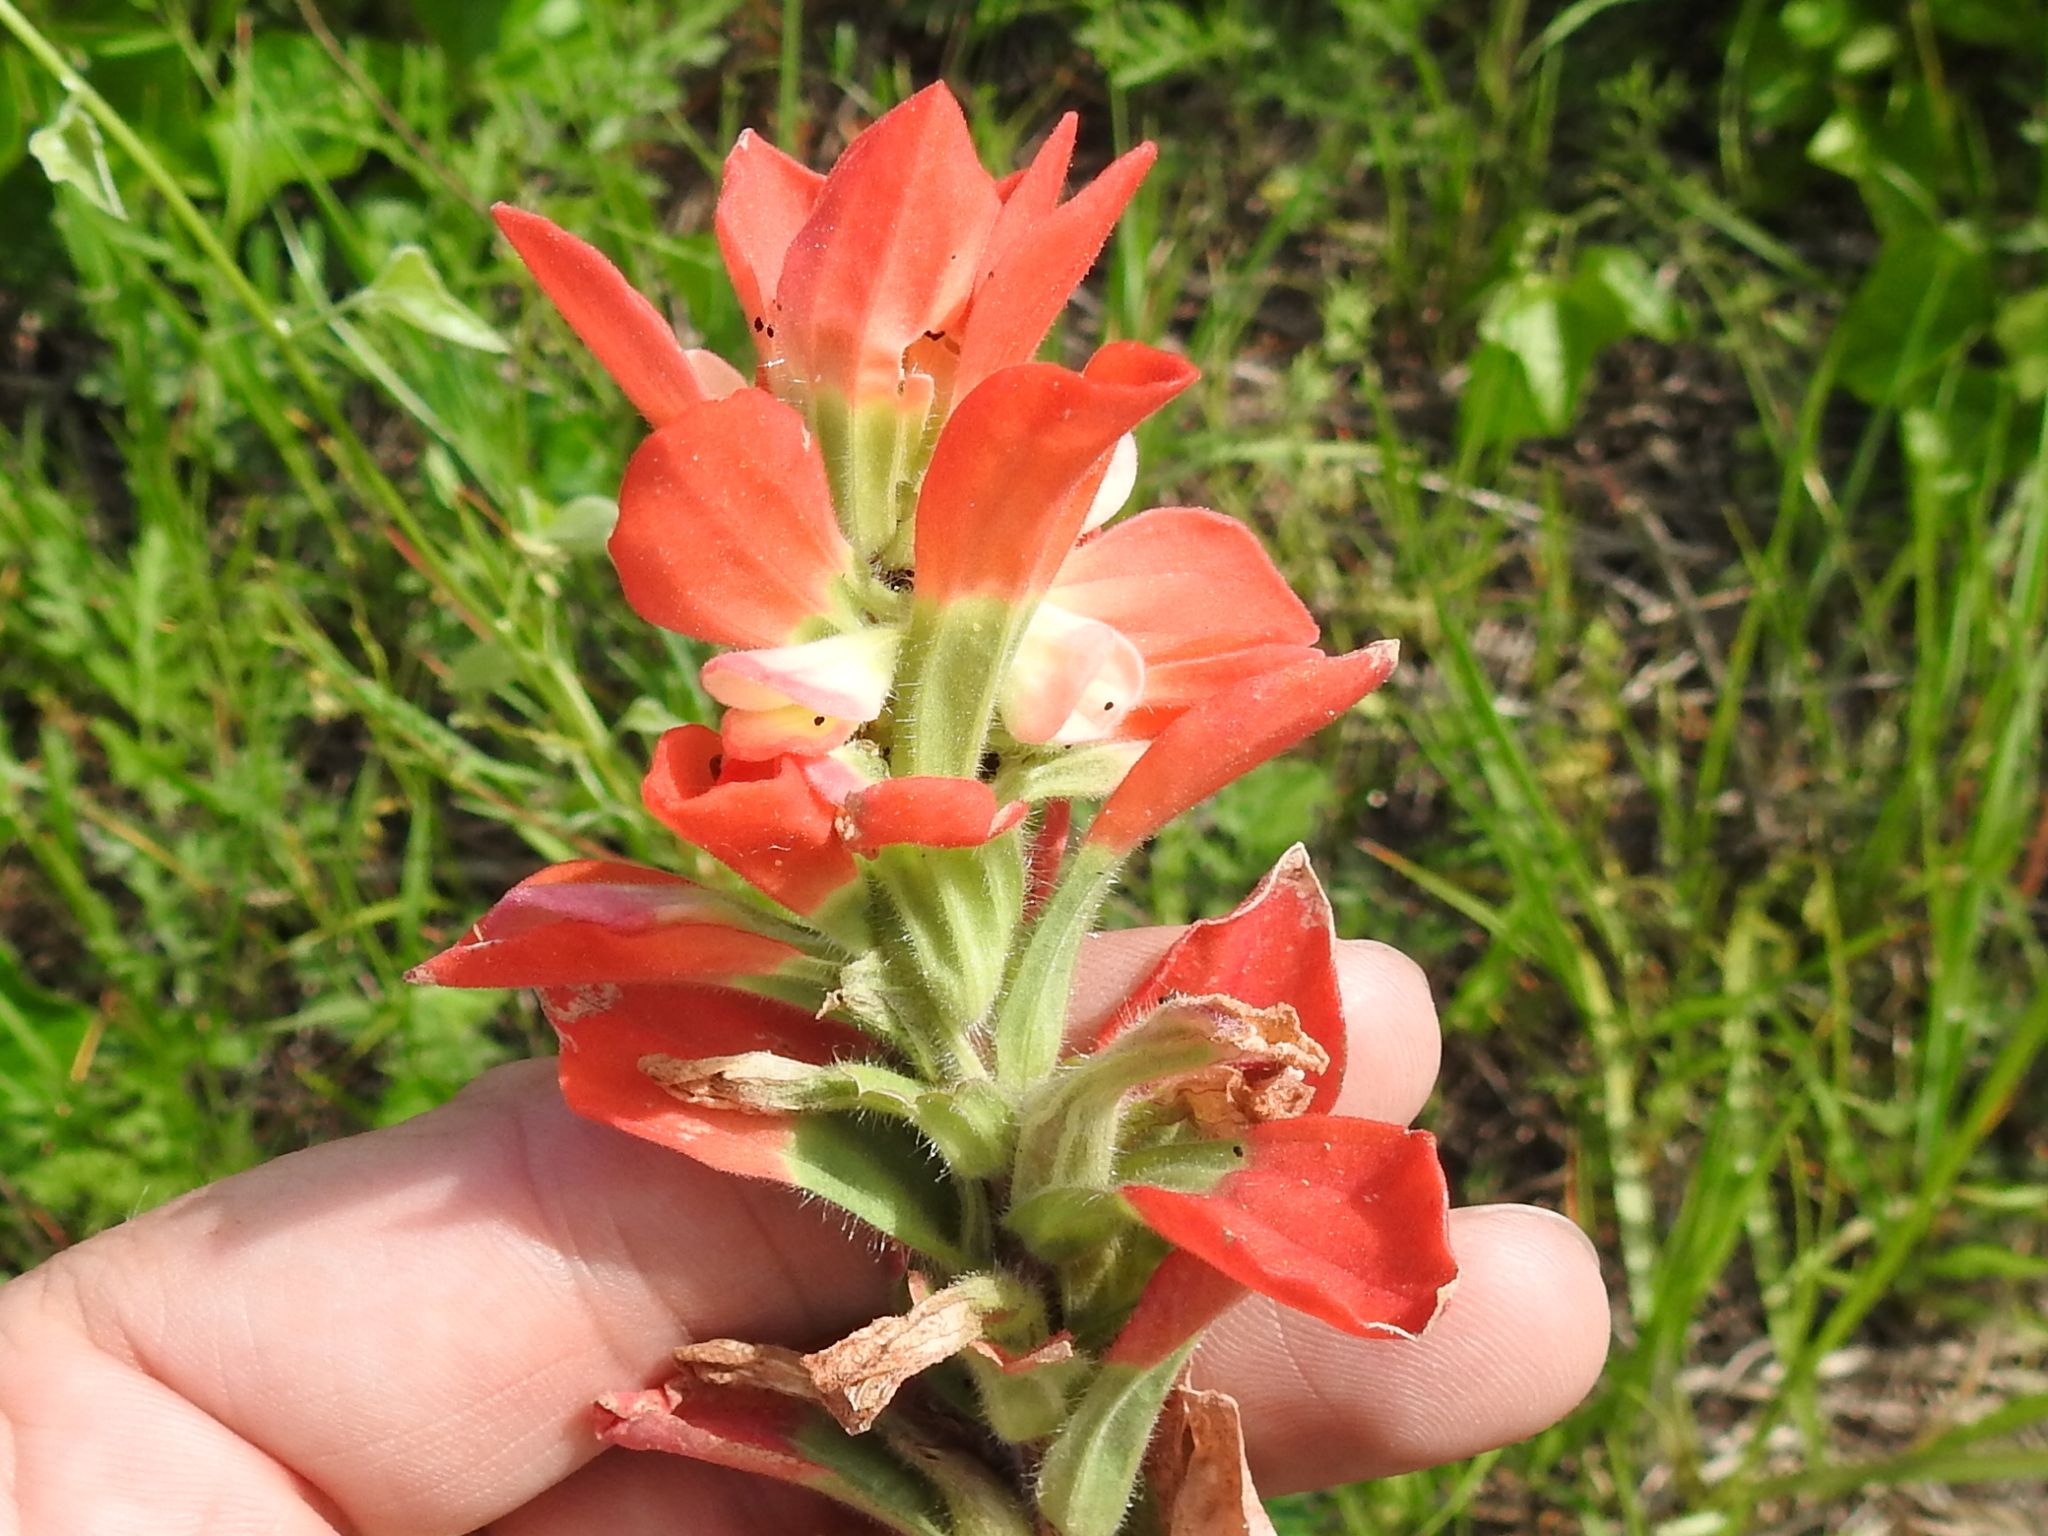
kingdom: Plantae
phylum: Tracheophyta
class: Magnoliopsida
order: Lamiales
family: Orobanchaceae
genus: Castilleja
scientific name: Castilleja indivisa
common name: Texas paintbrush
